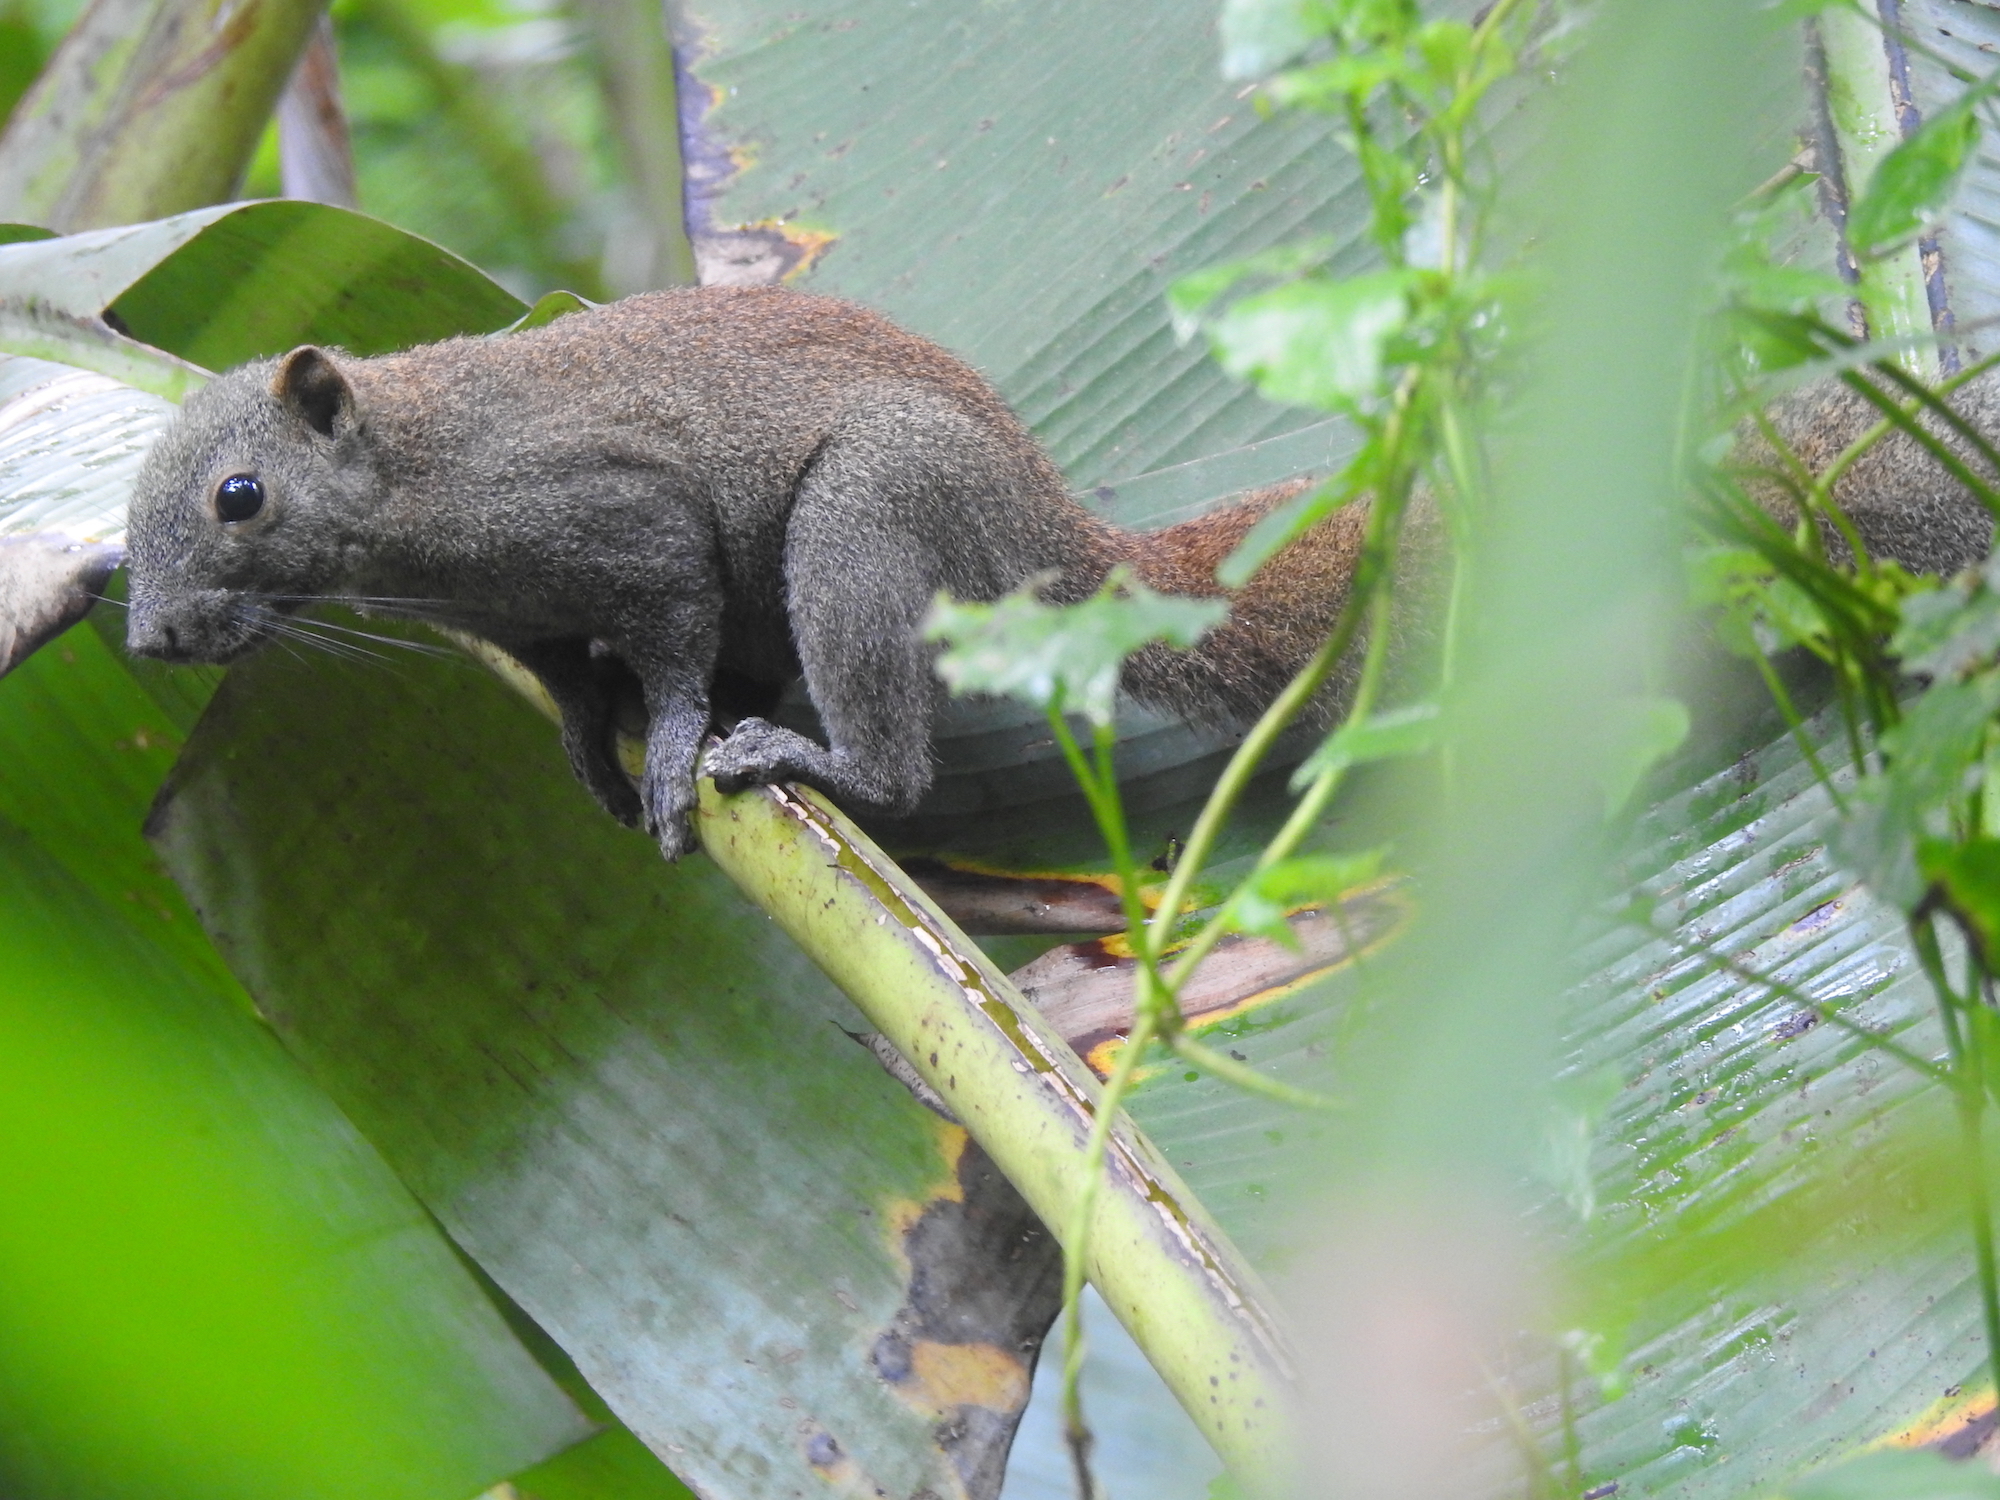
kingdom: Animalia
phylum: Chordata
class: Mammalia
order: Rodentia
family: Sciuridae
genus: Callosciurus
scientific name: Callosciurus caniceps
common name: Gray-bellied squirrel
